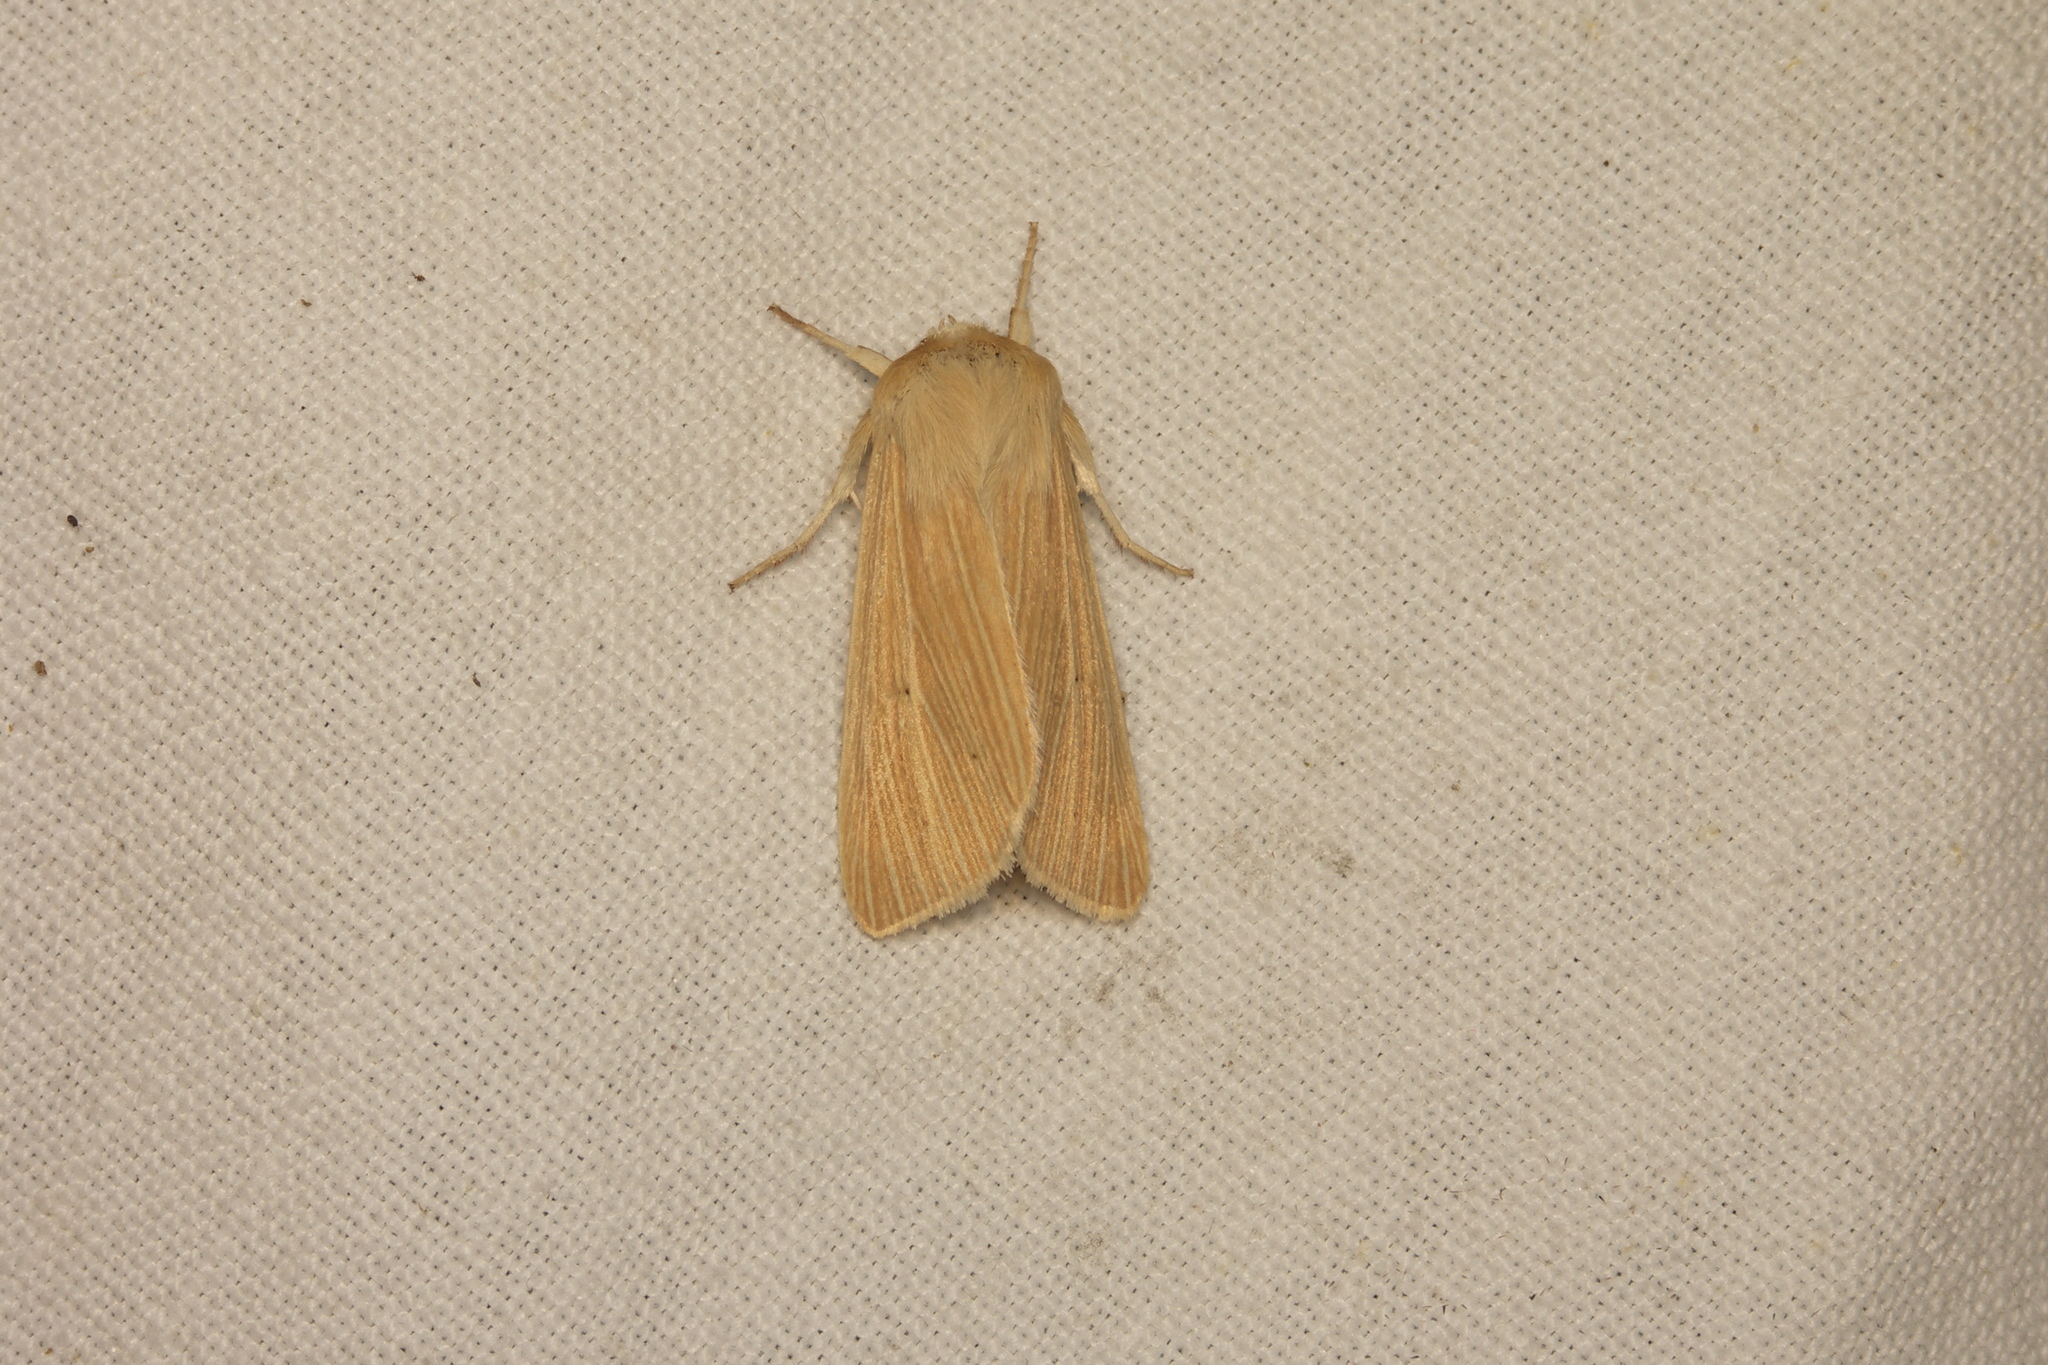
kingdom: Animalia
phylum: Arthropoda
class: Insecta
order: Lepidoptera
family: Noctuidae
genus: Mythimna
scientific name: Mythimna pallens
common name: Common wainscot
